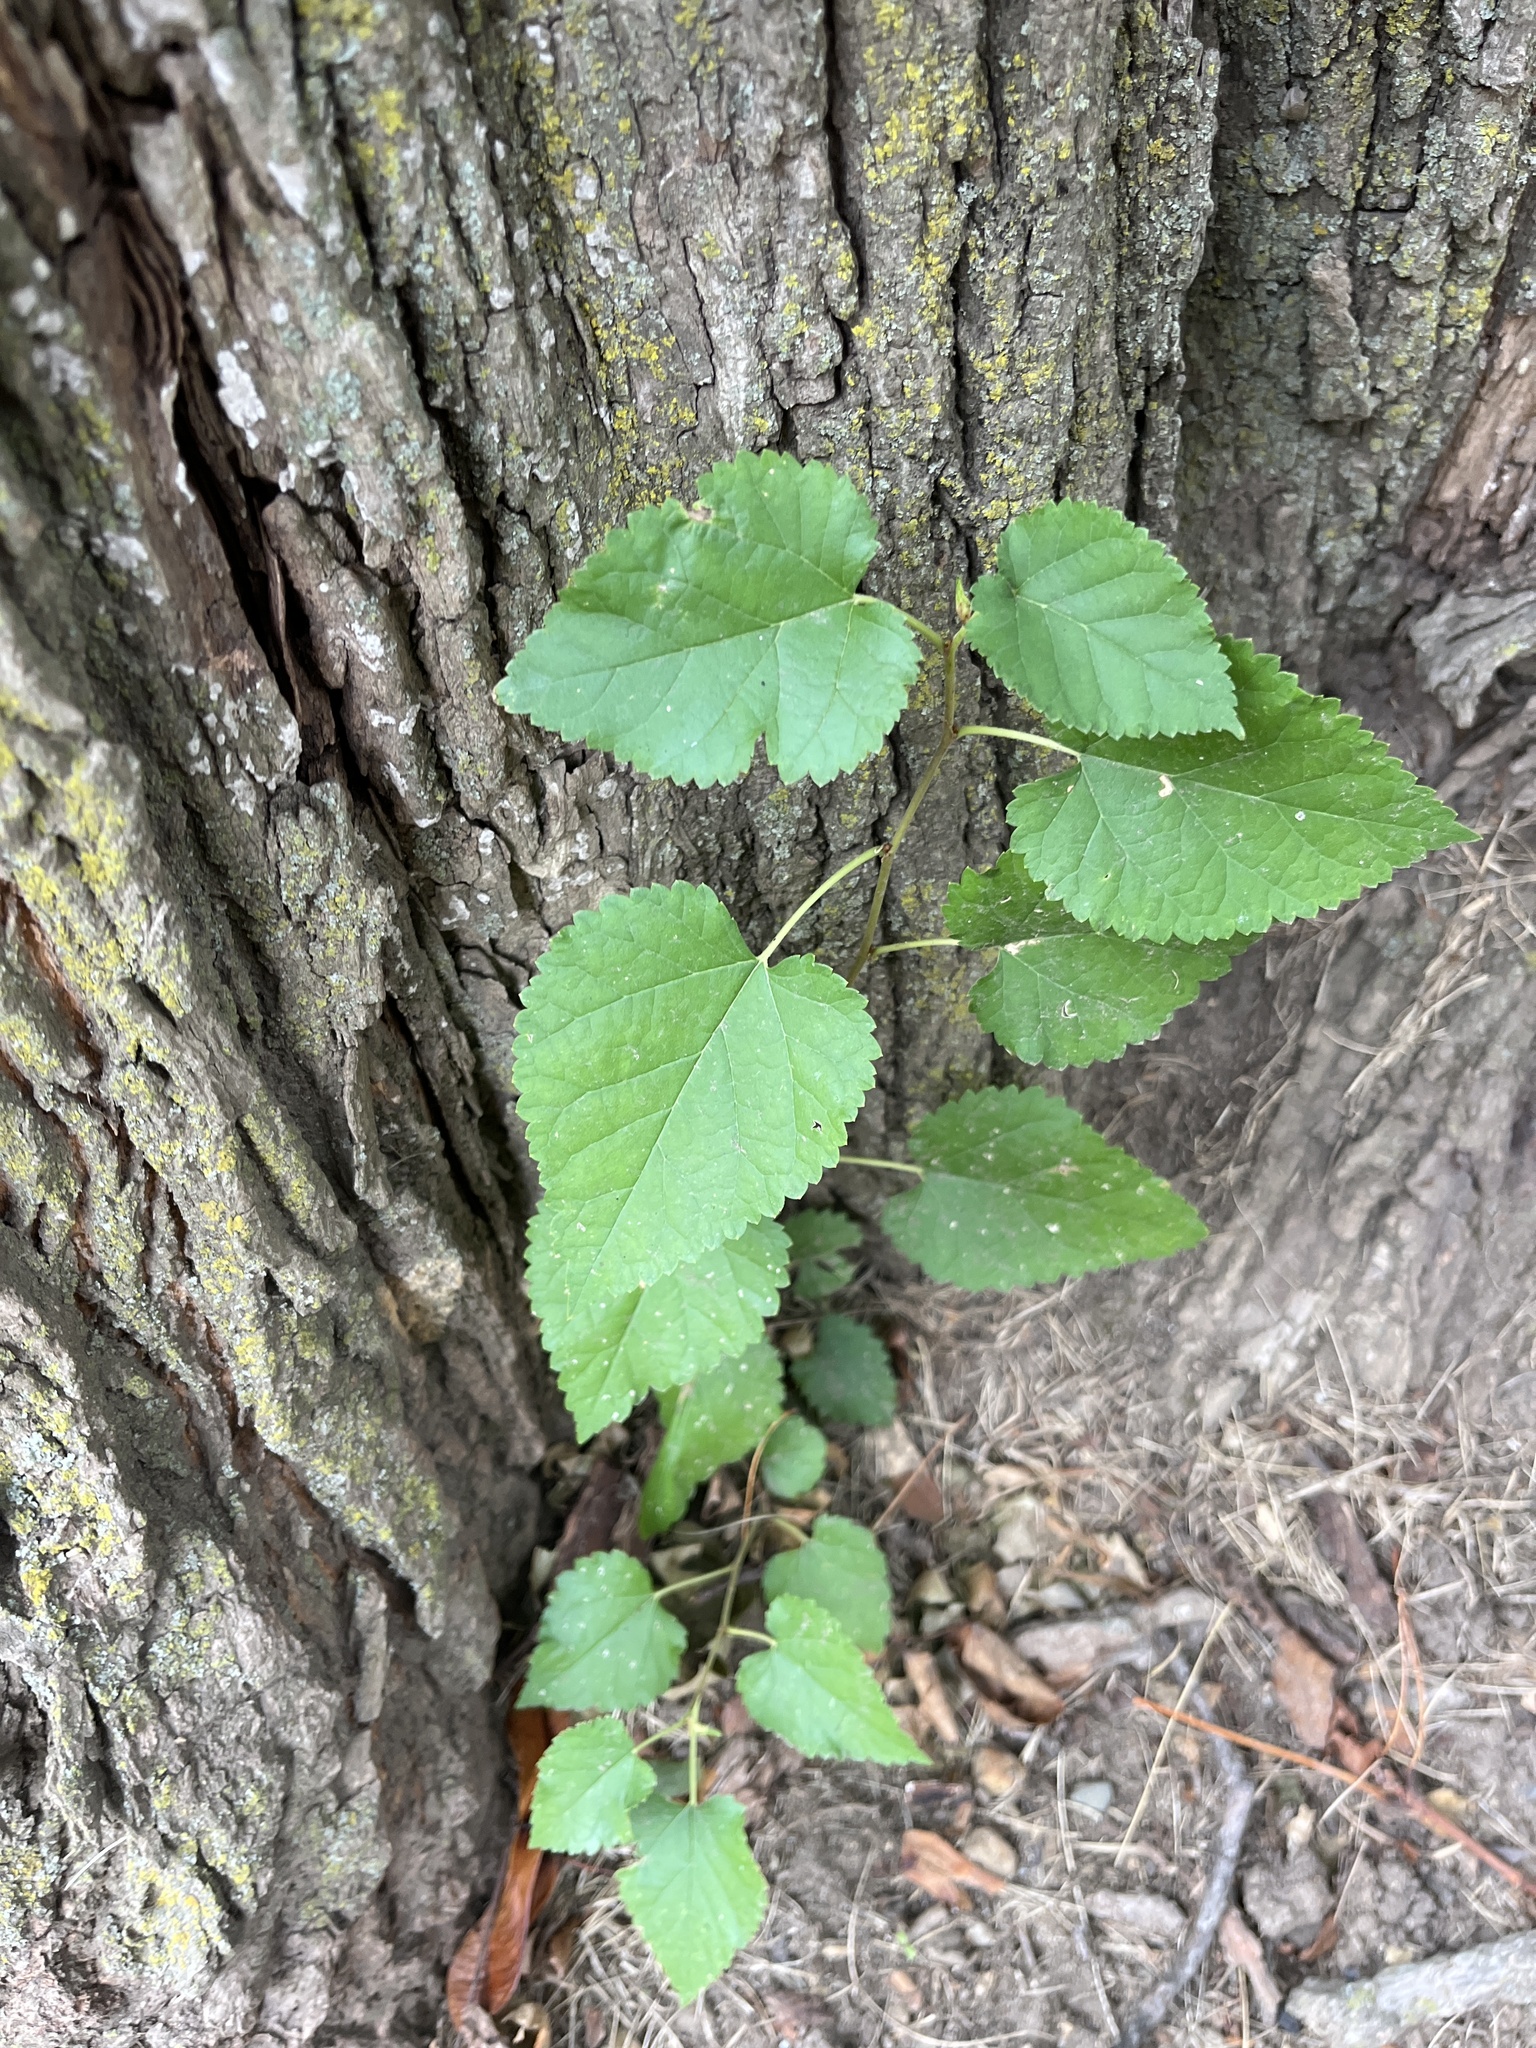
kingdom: Plantae
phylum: Tracheophyta
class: Magnoliopsida
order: Rosales
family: Moraceae
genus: Morus
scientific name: Morus alba
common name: White mulberry
